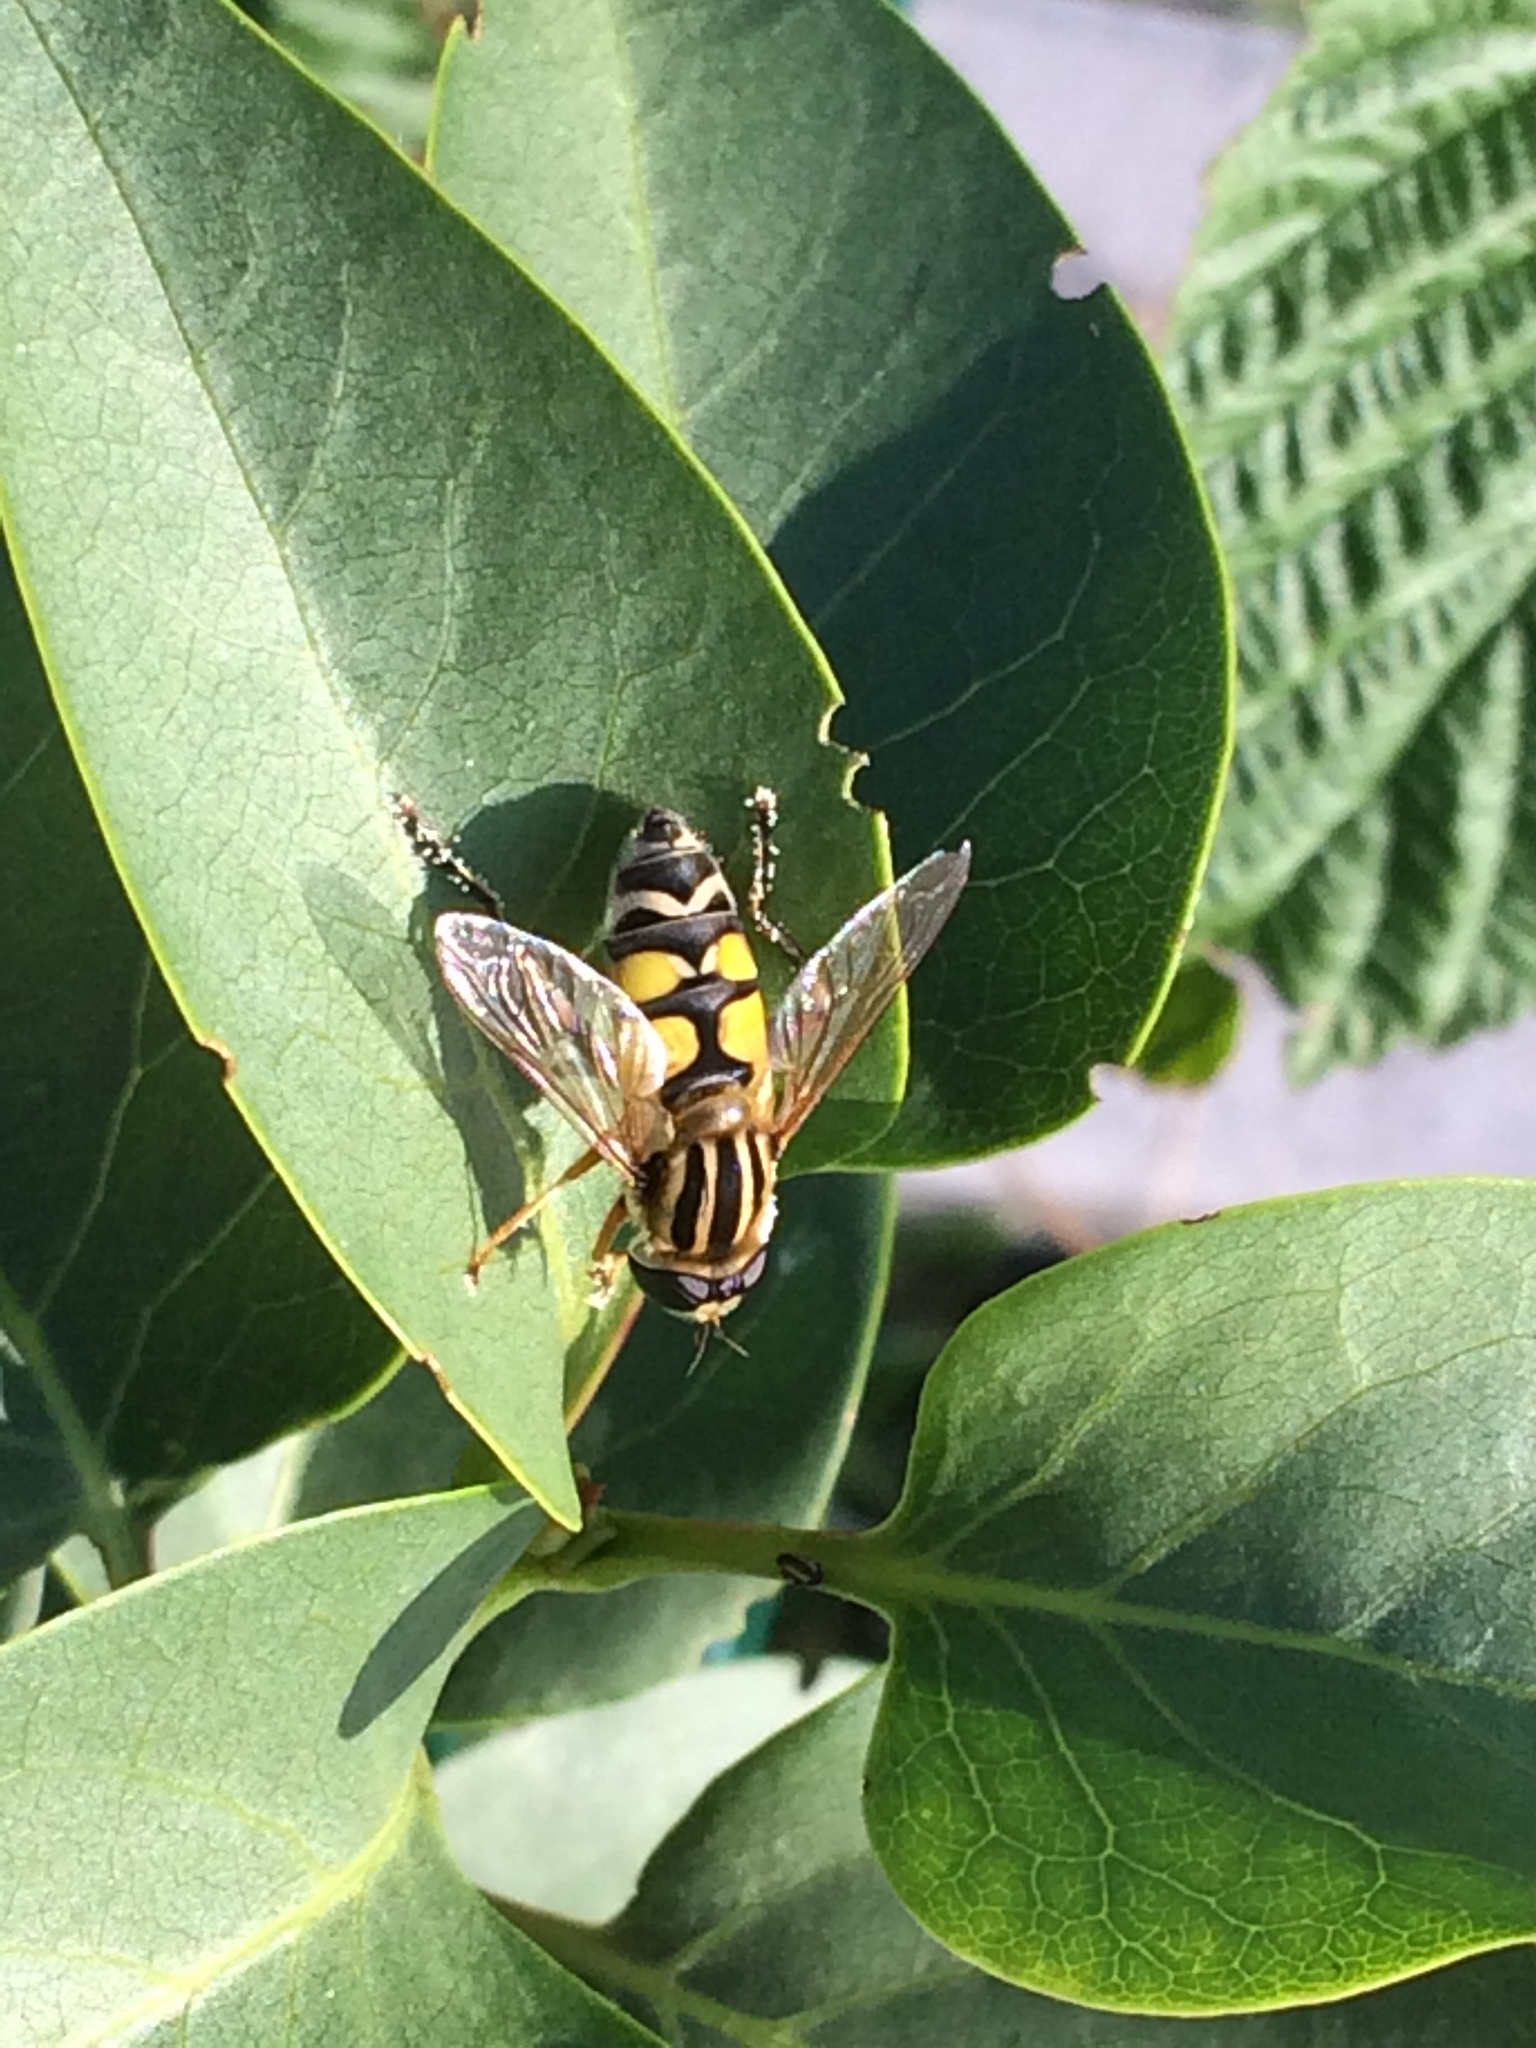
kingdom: Animalia
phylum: Arthropoda
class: Insecta
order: Diptera
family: Syrphidae
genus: Helophilus
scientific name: Helophilus trivittatus
